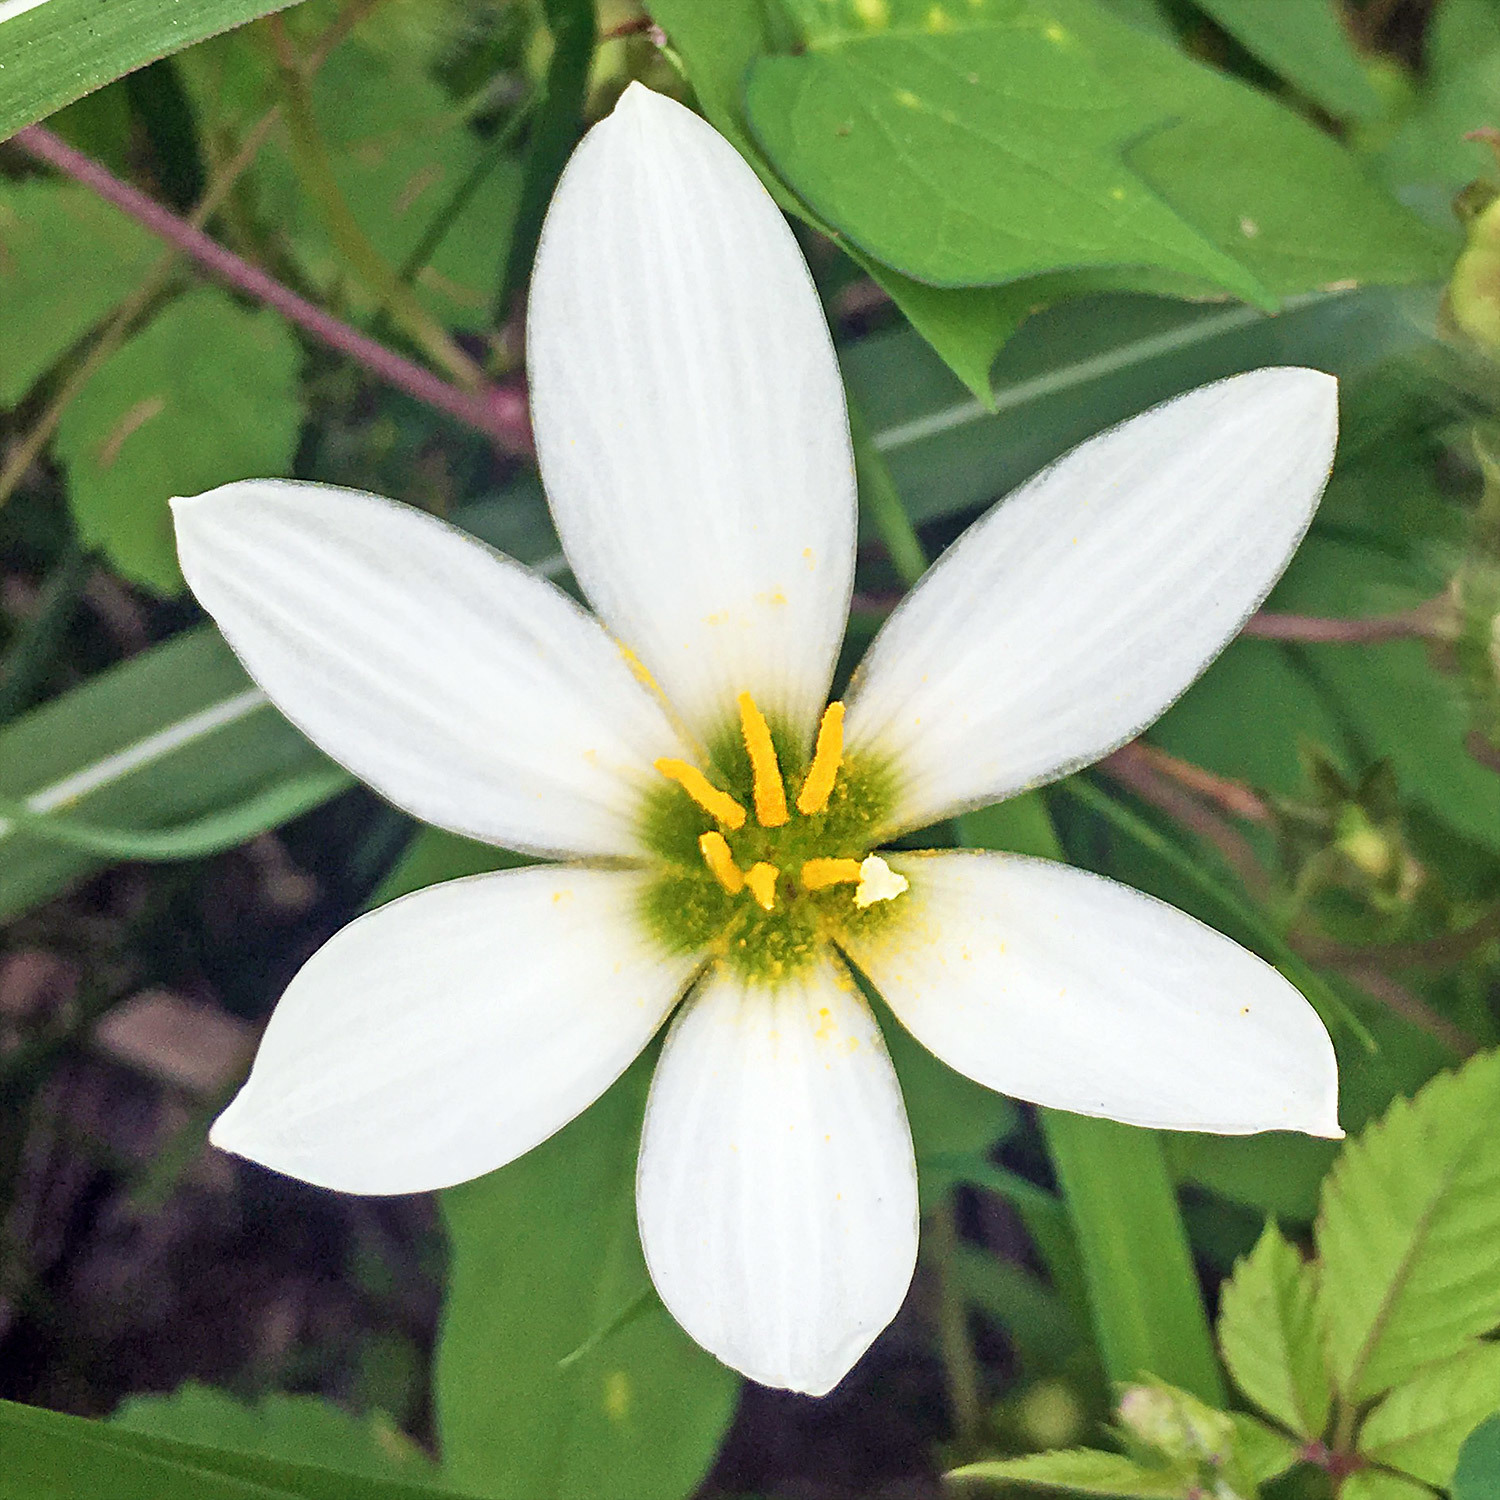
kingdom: Plantae
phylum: Tracheophyta
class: Liliopsida
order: Asparagales
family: Amaryllidaceae
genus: Zephyranthes
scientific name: Zephyranthes candida
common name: Autumn zephyrlily
